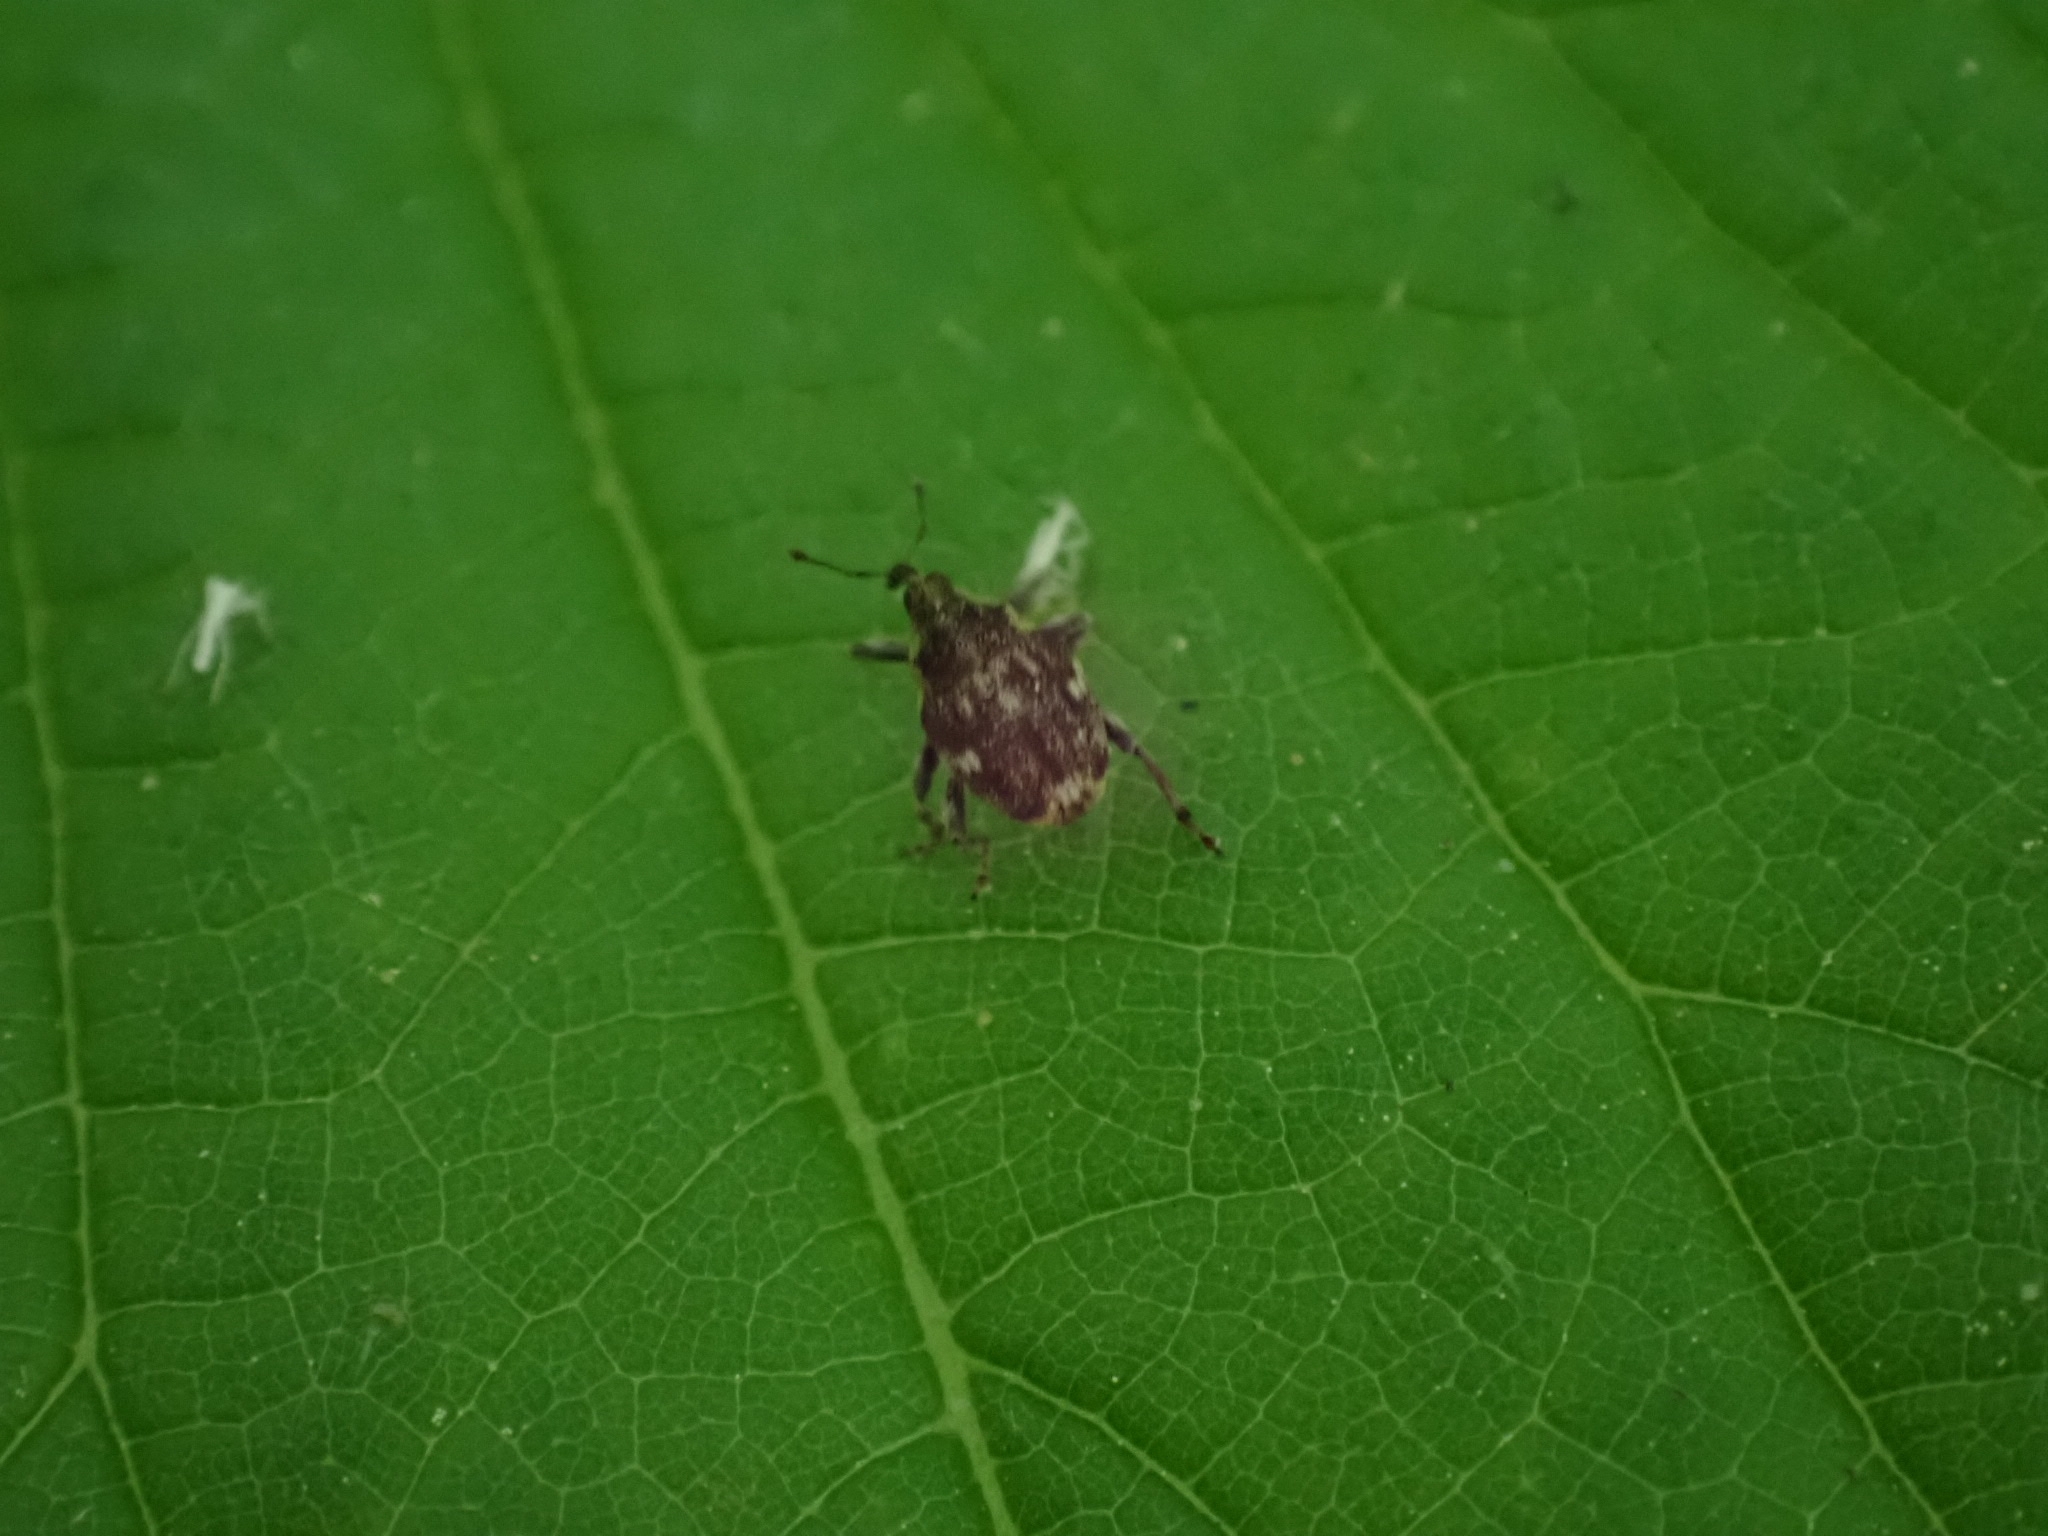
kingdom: Animalia
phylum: Arthropoda
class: Insecta
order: Coleoptera
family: Curculionidae
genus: Nedyus
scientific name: Nedyus quadrimaculatus
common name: Small nettle weevil
